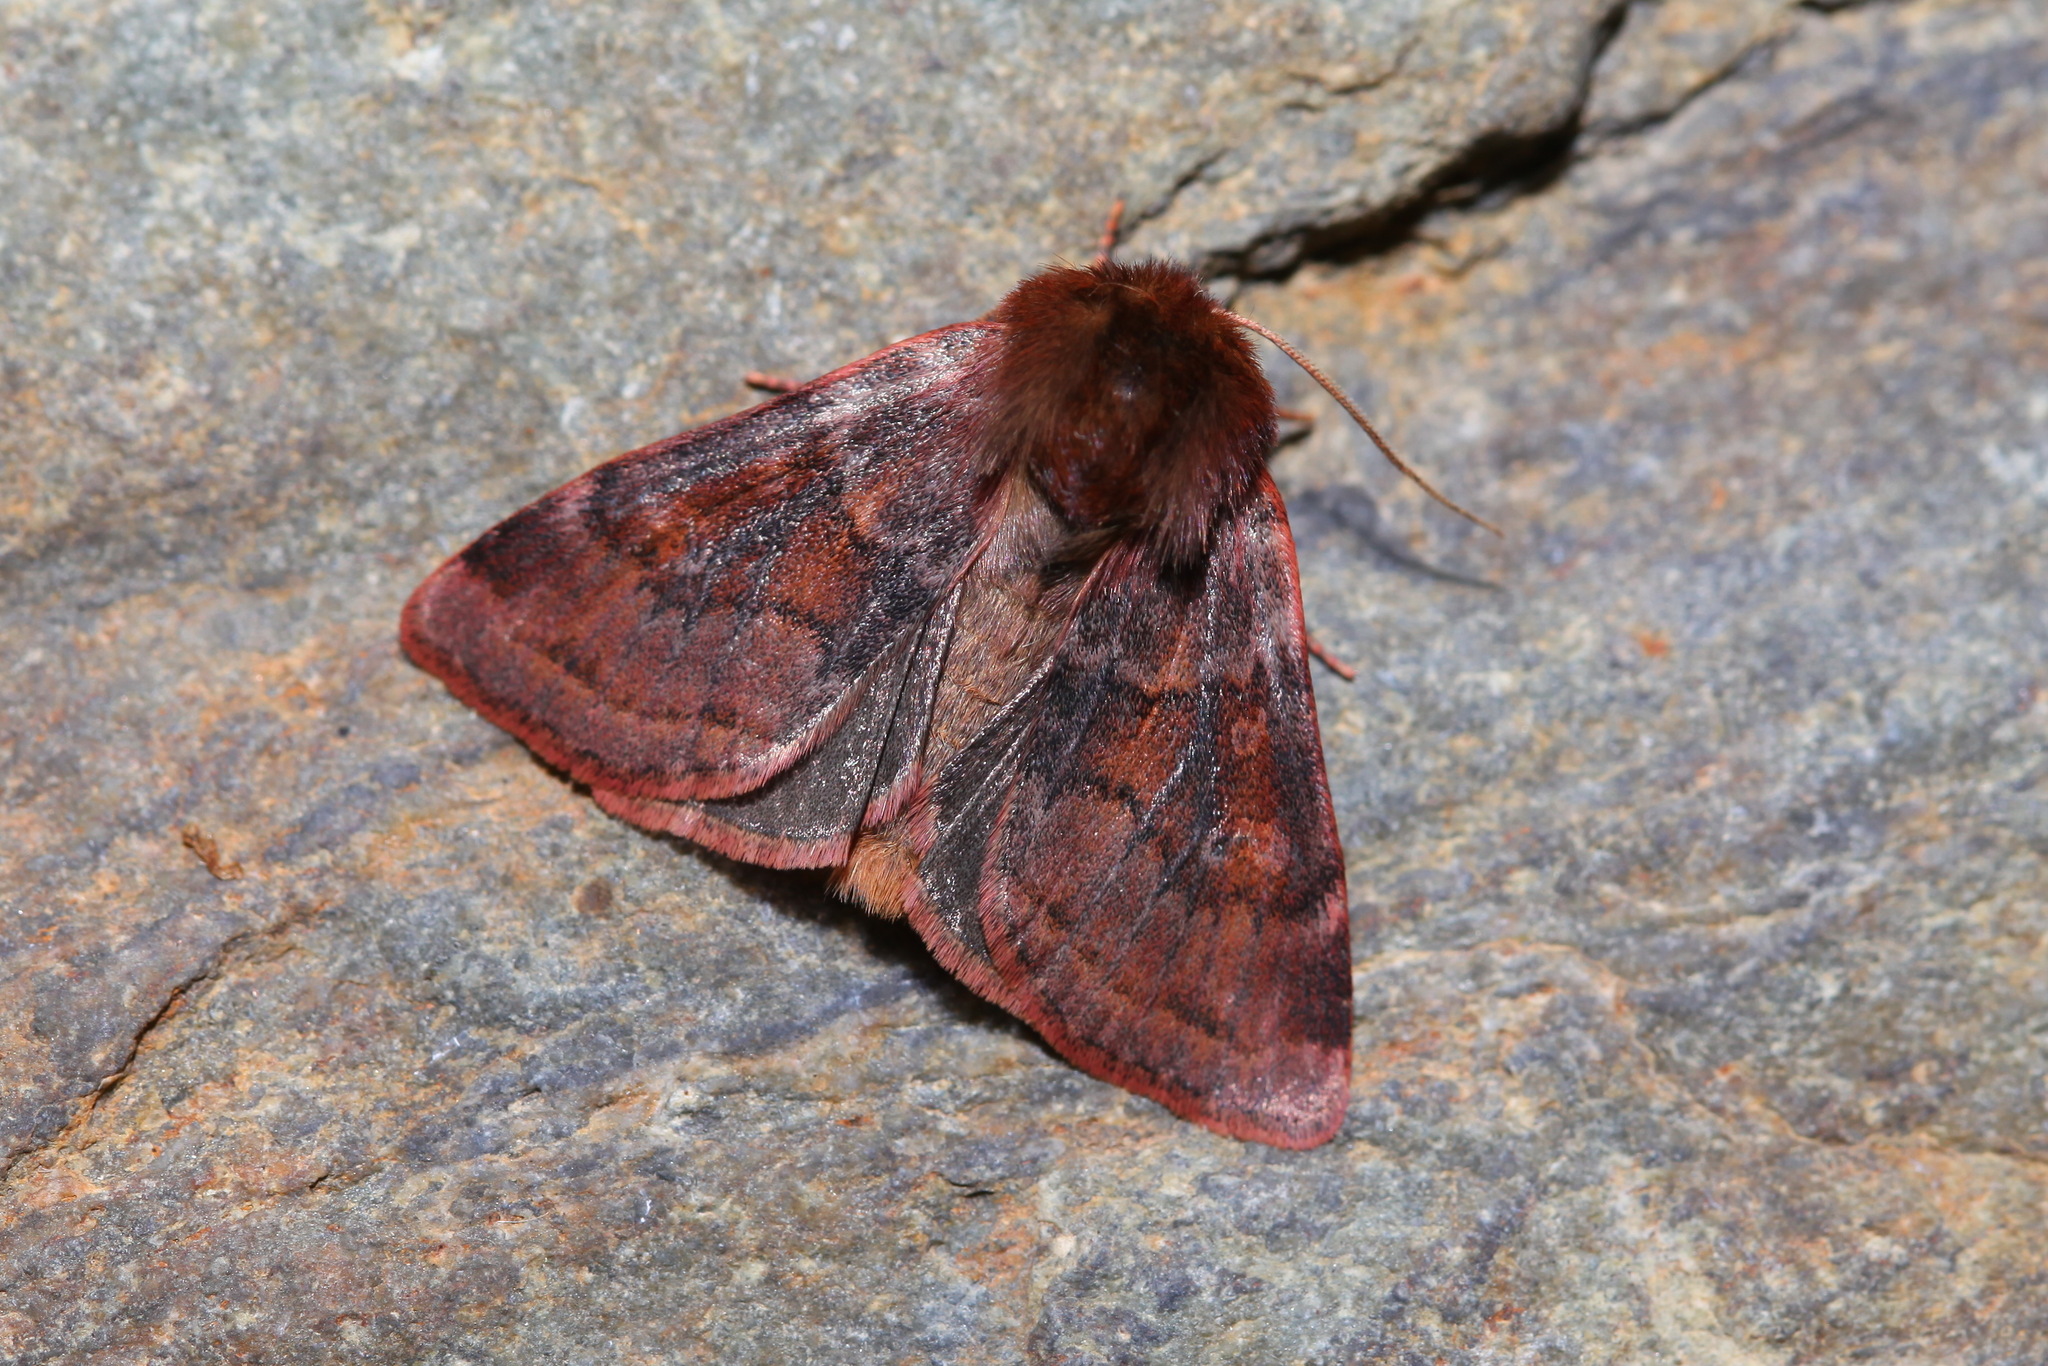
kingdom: Animalia
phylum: Arthropoda
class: Insecta
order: Lepidoptera
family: Noctuidae
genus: Xestia
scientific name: Xestia tecta
